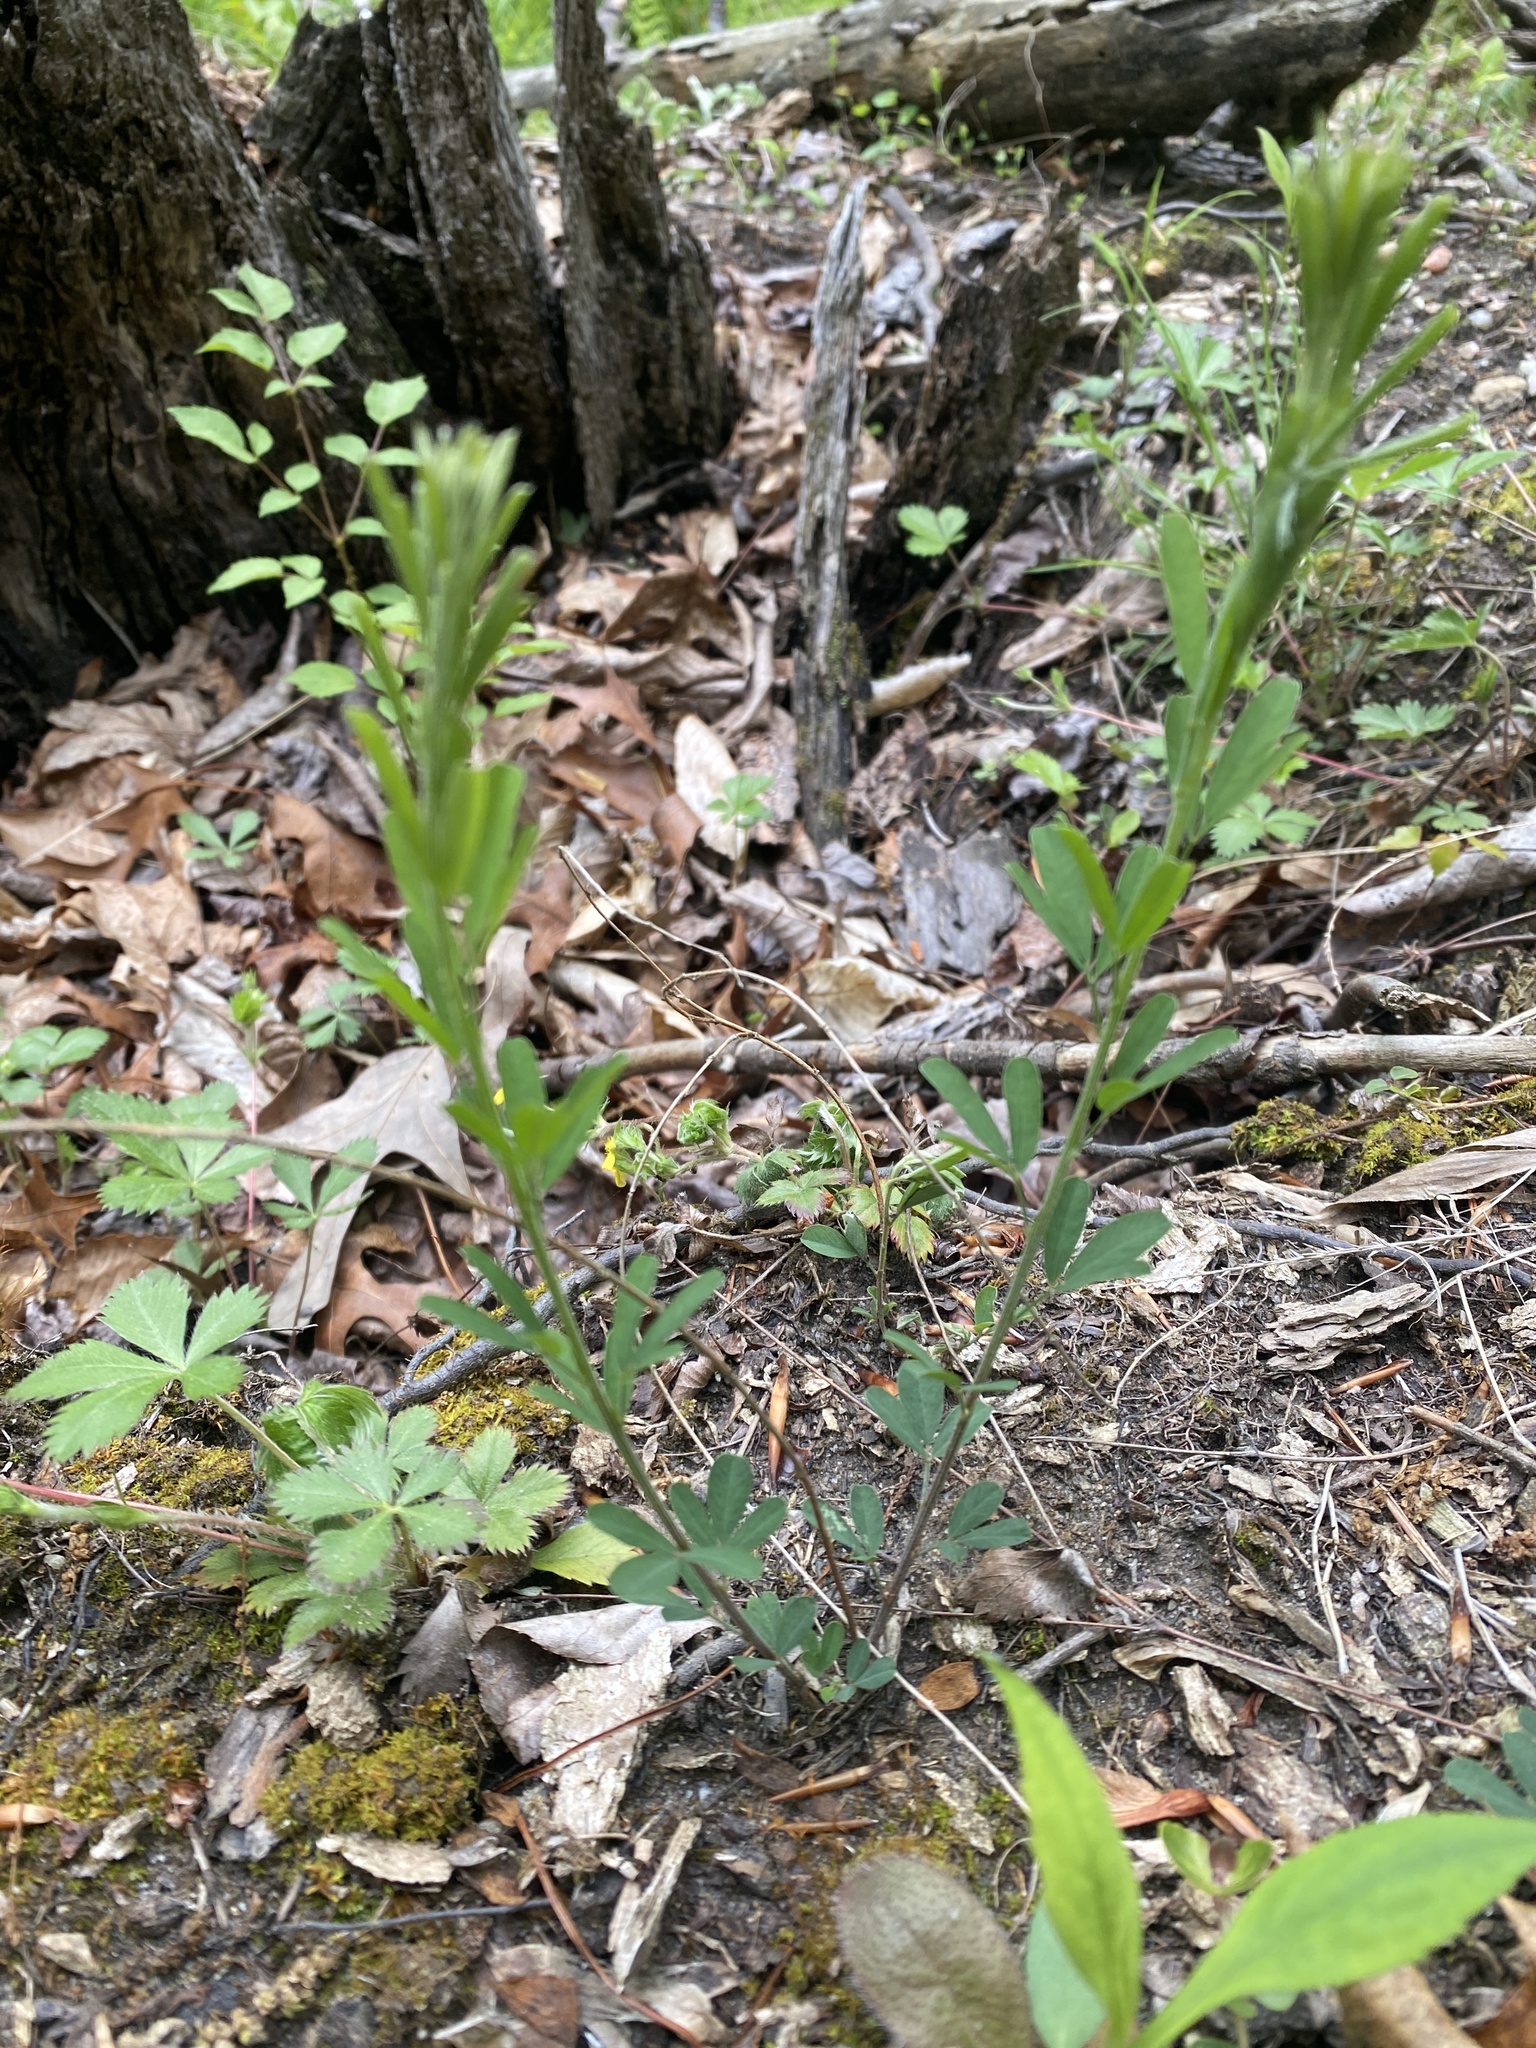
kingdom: Plantae
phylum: Tracheophyta
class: Magnoliopsida
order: Fabales
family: Fabaceae
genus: Lespedeza
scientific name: Lespedeza cuneata
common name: Chinese bush-clover
